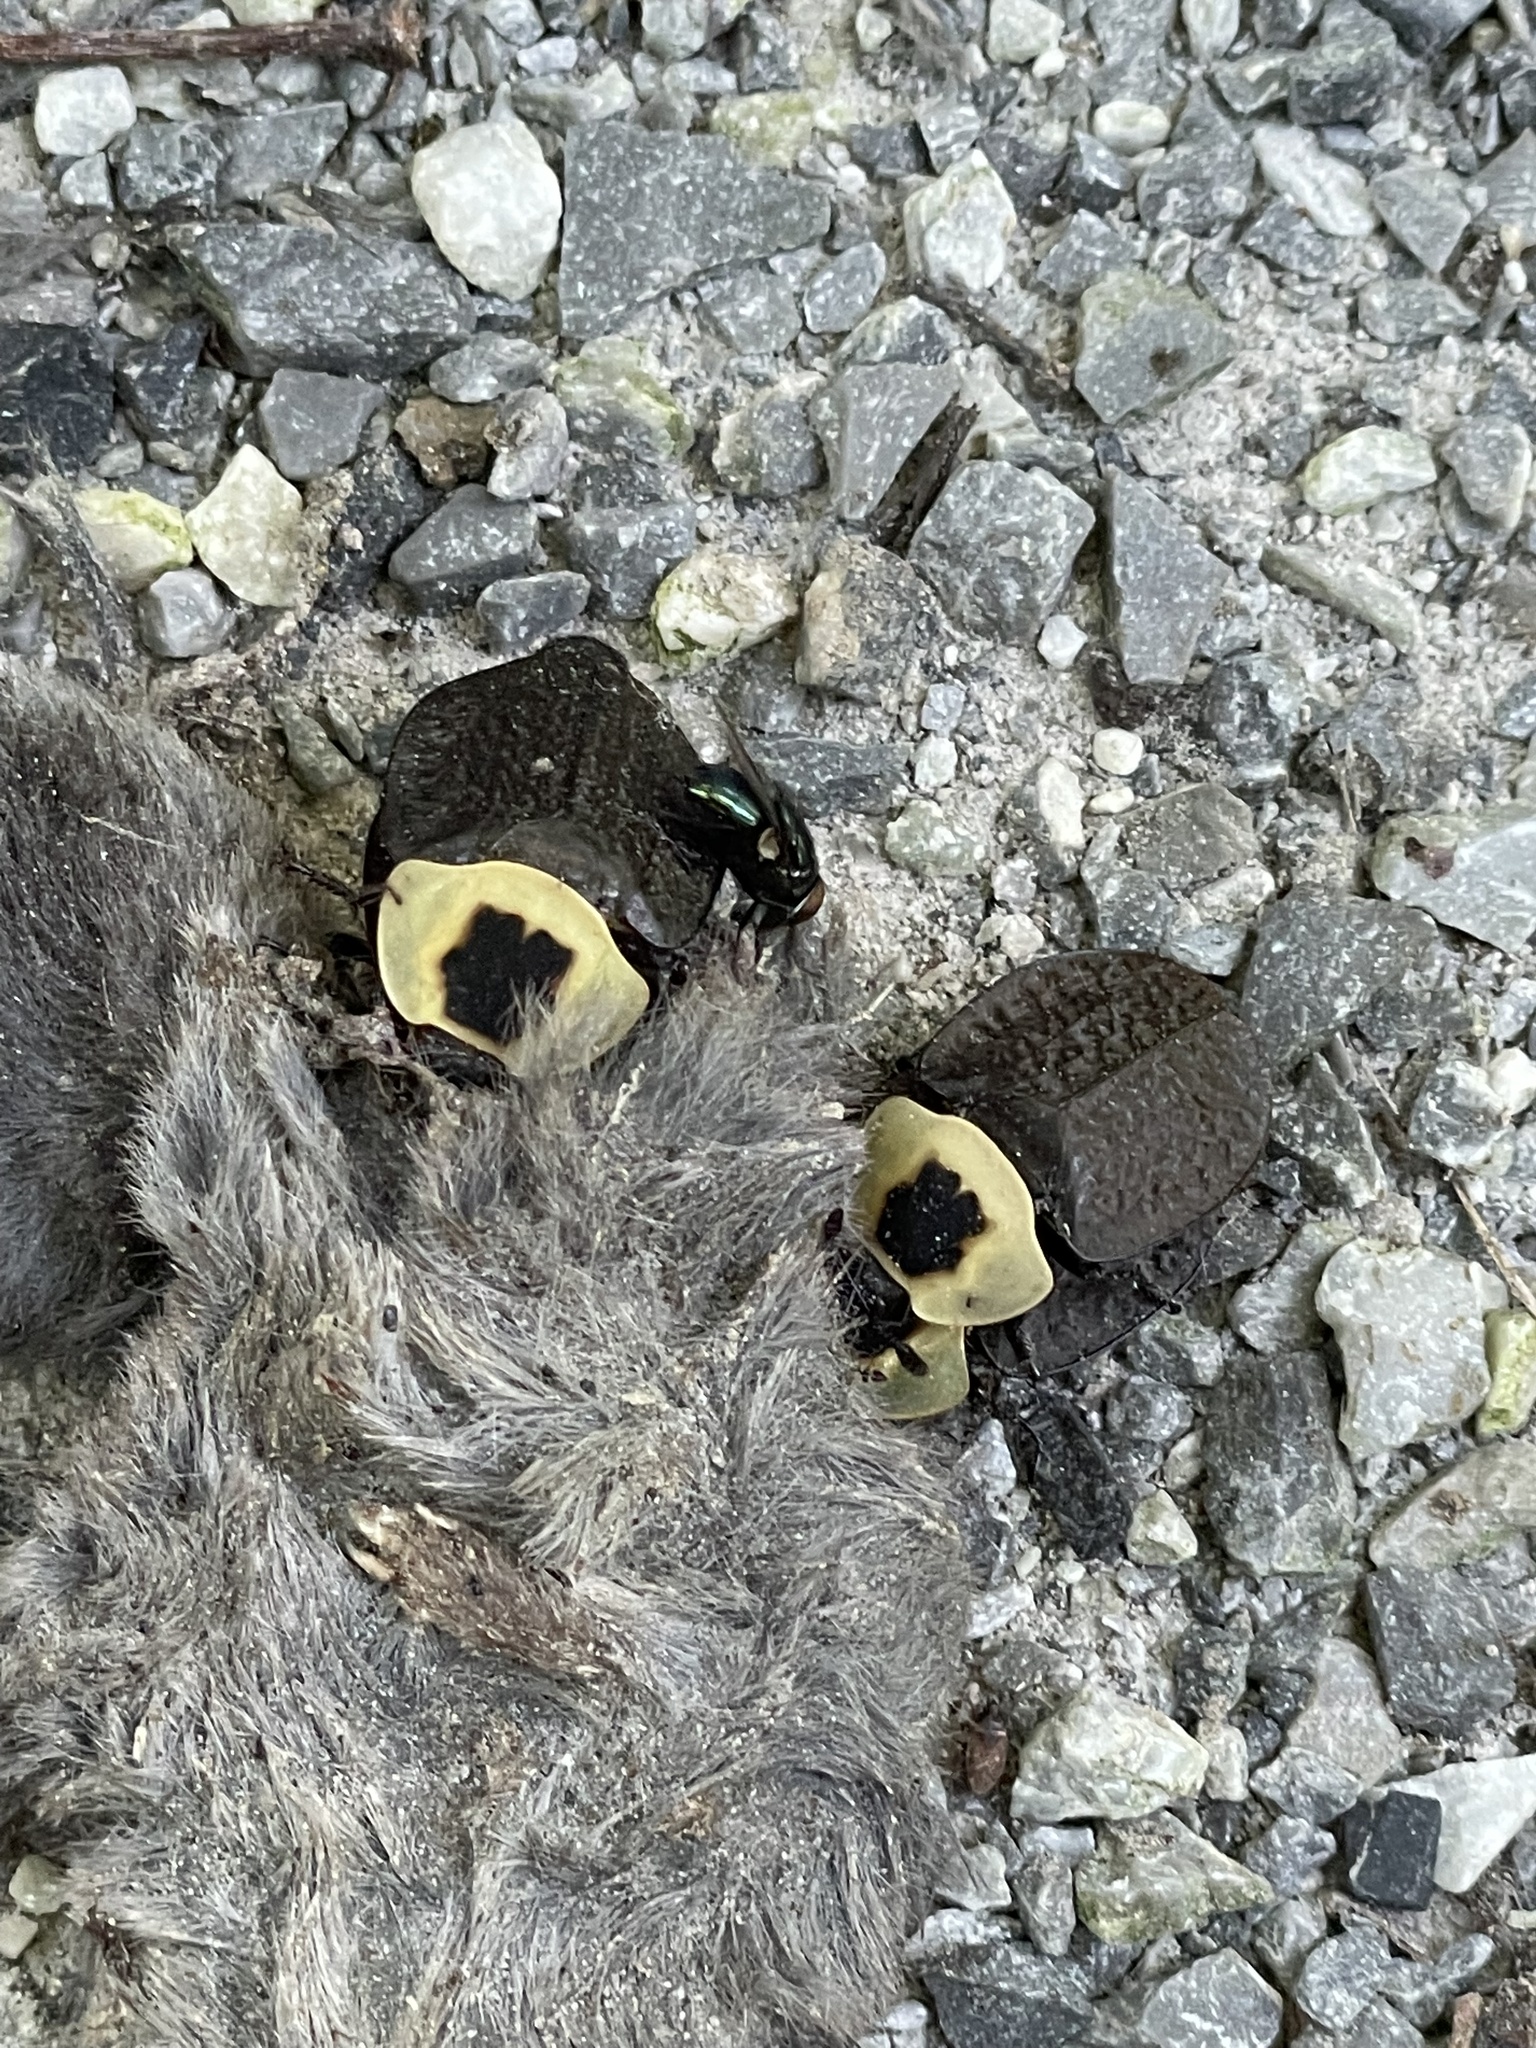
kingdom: Animalia
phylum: Arthropoda
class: Insecta
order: Coleoptera
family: Staphylinidae
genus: Necrophila
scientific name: Necrophila americana
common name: American carrion beetle
